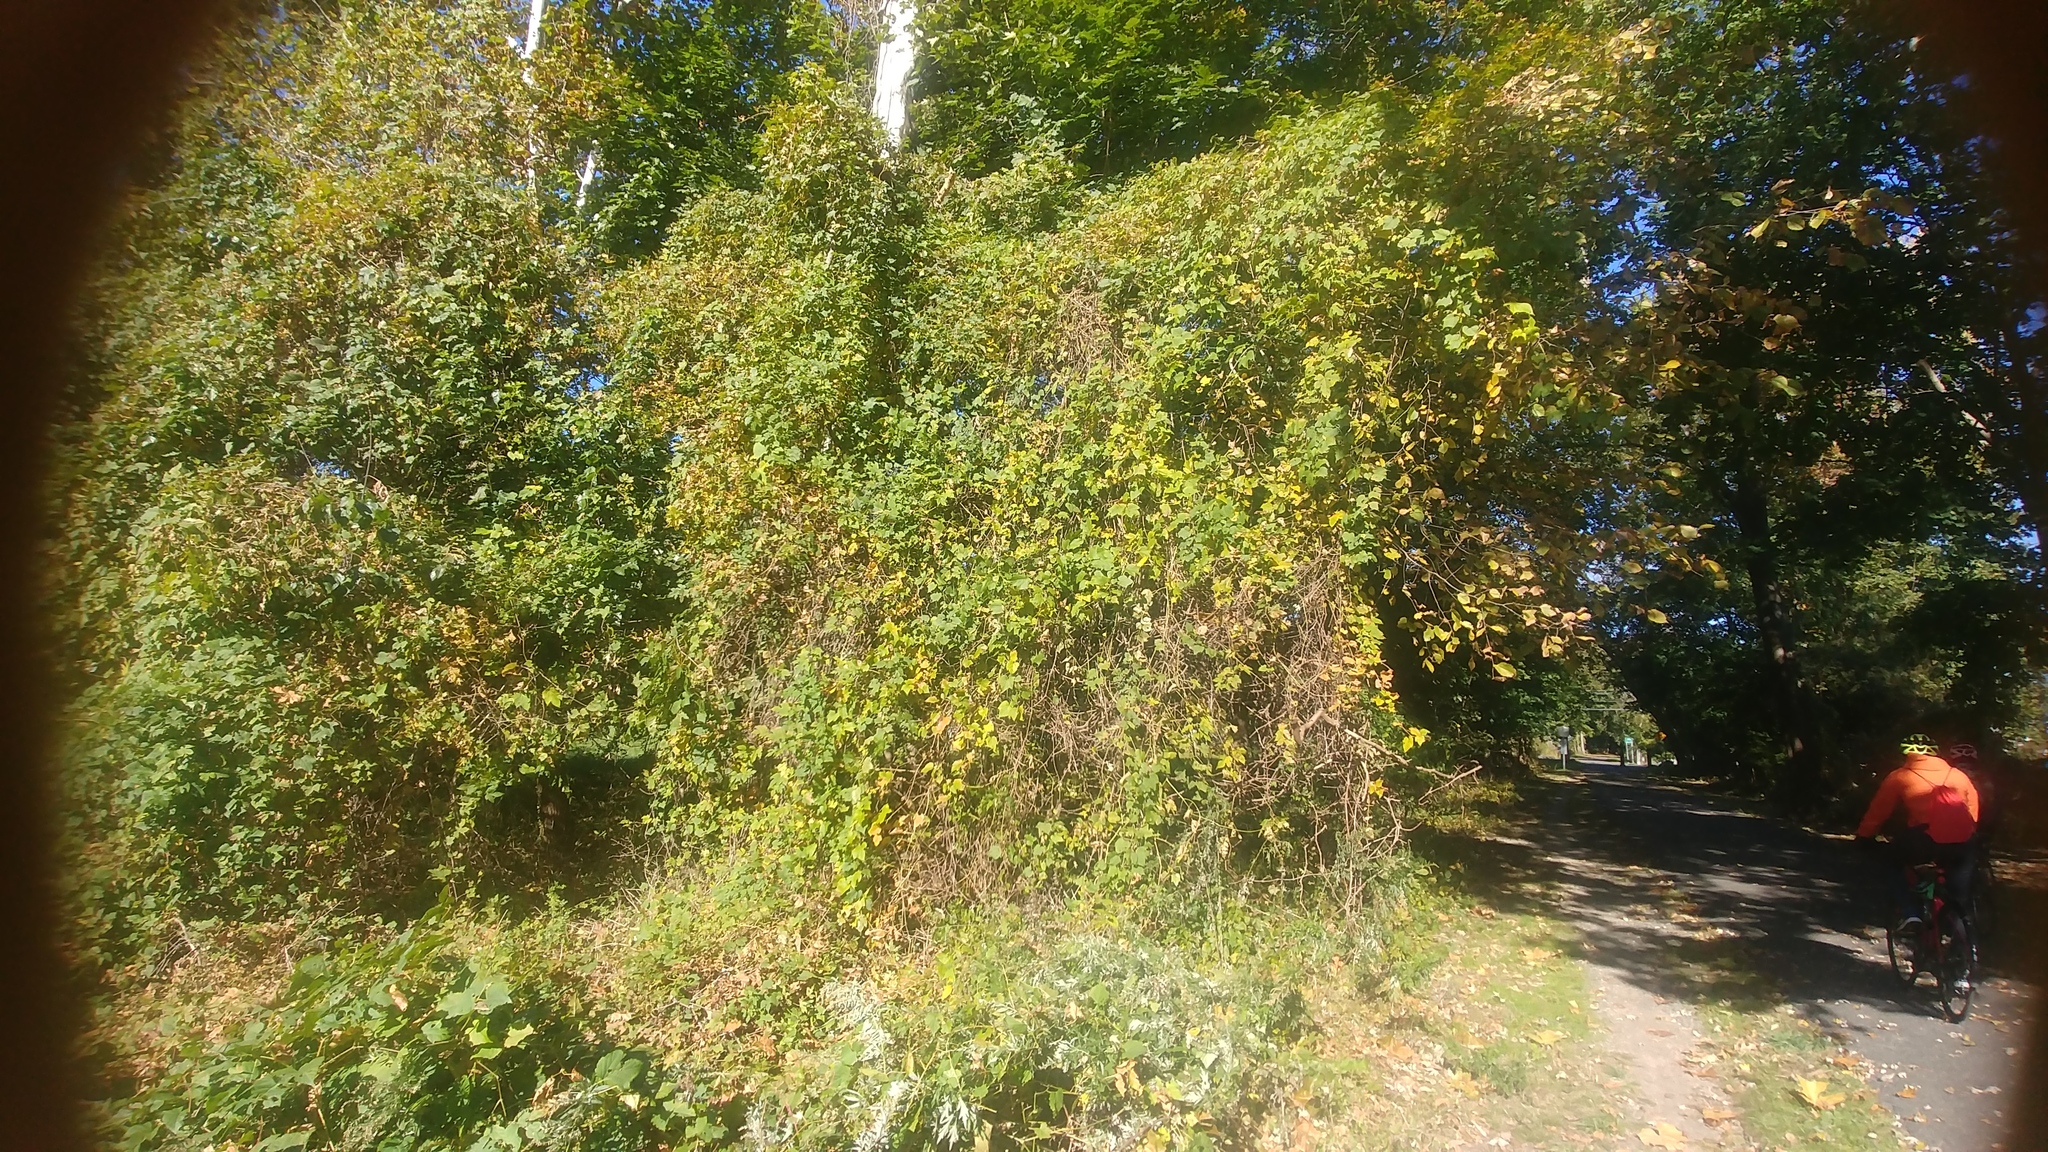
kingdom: Plantae
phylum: Tracheophyta
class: Magnoliopsida
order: Vitales
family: Vitaceae
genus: Ampelopsis
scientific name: Ampelopsis glandulosa
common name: Amur peppervine
